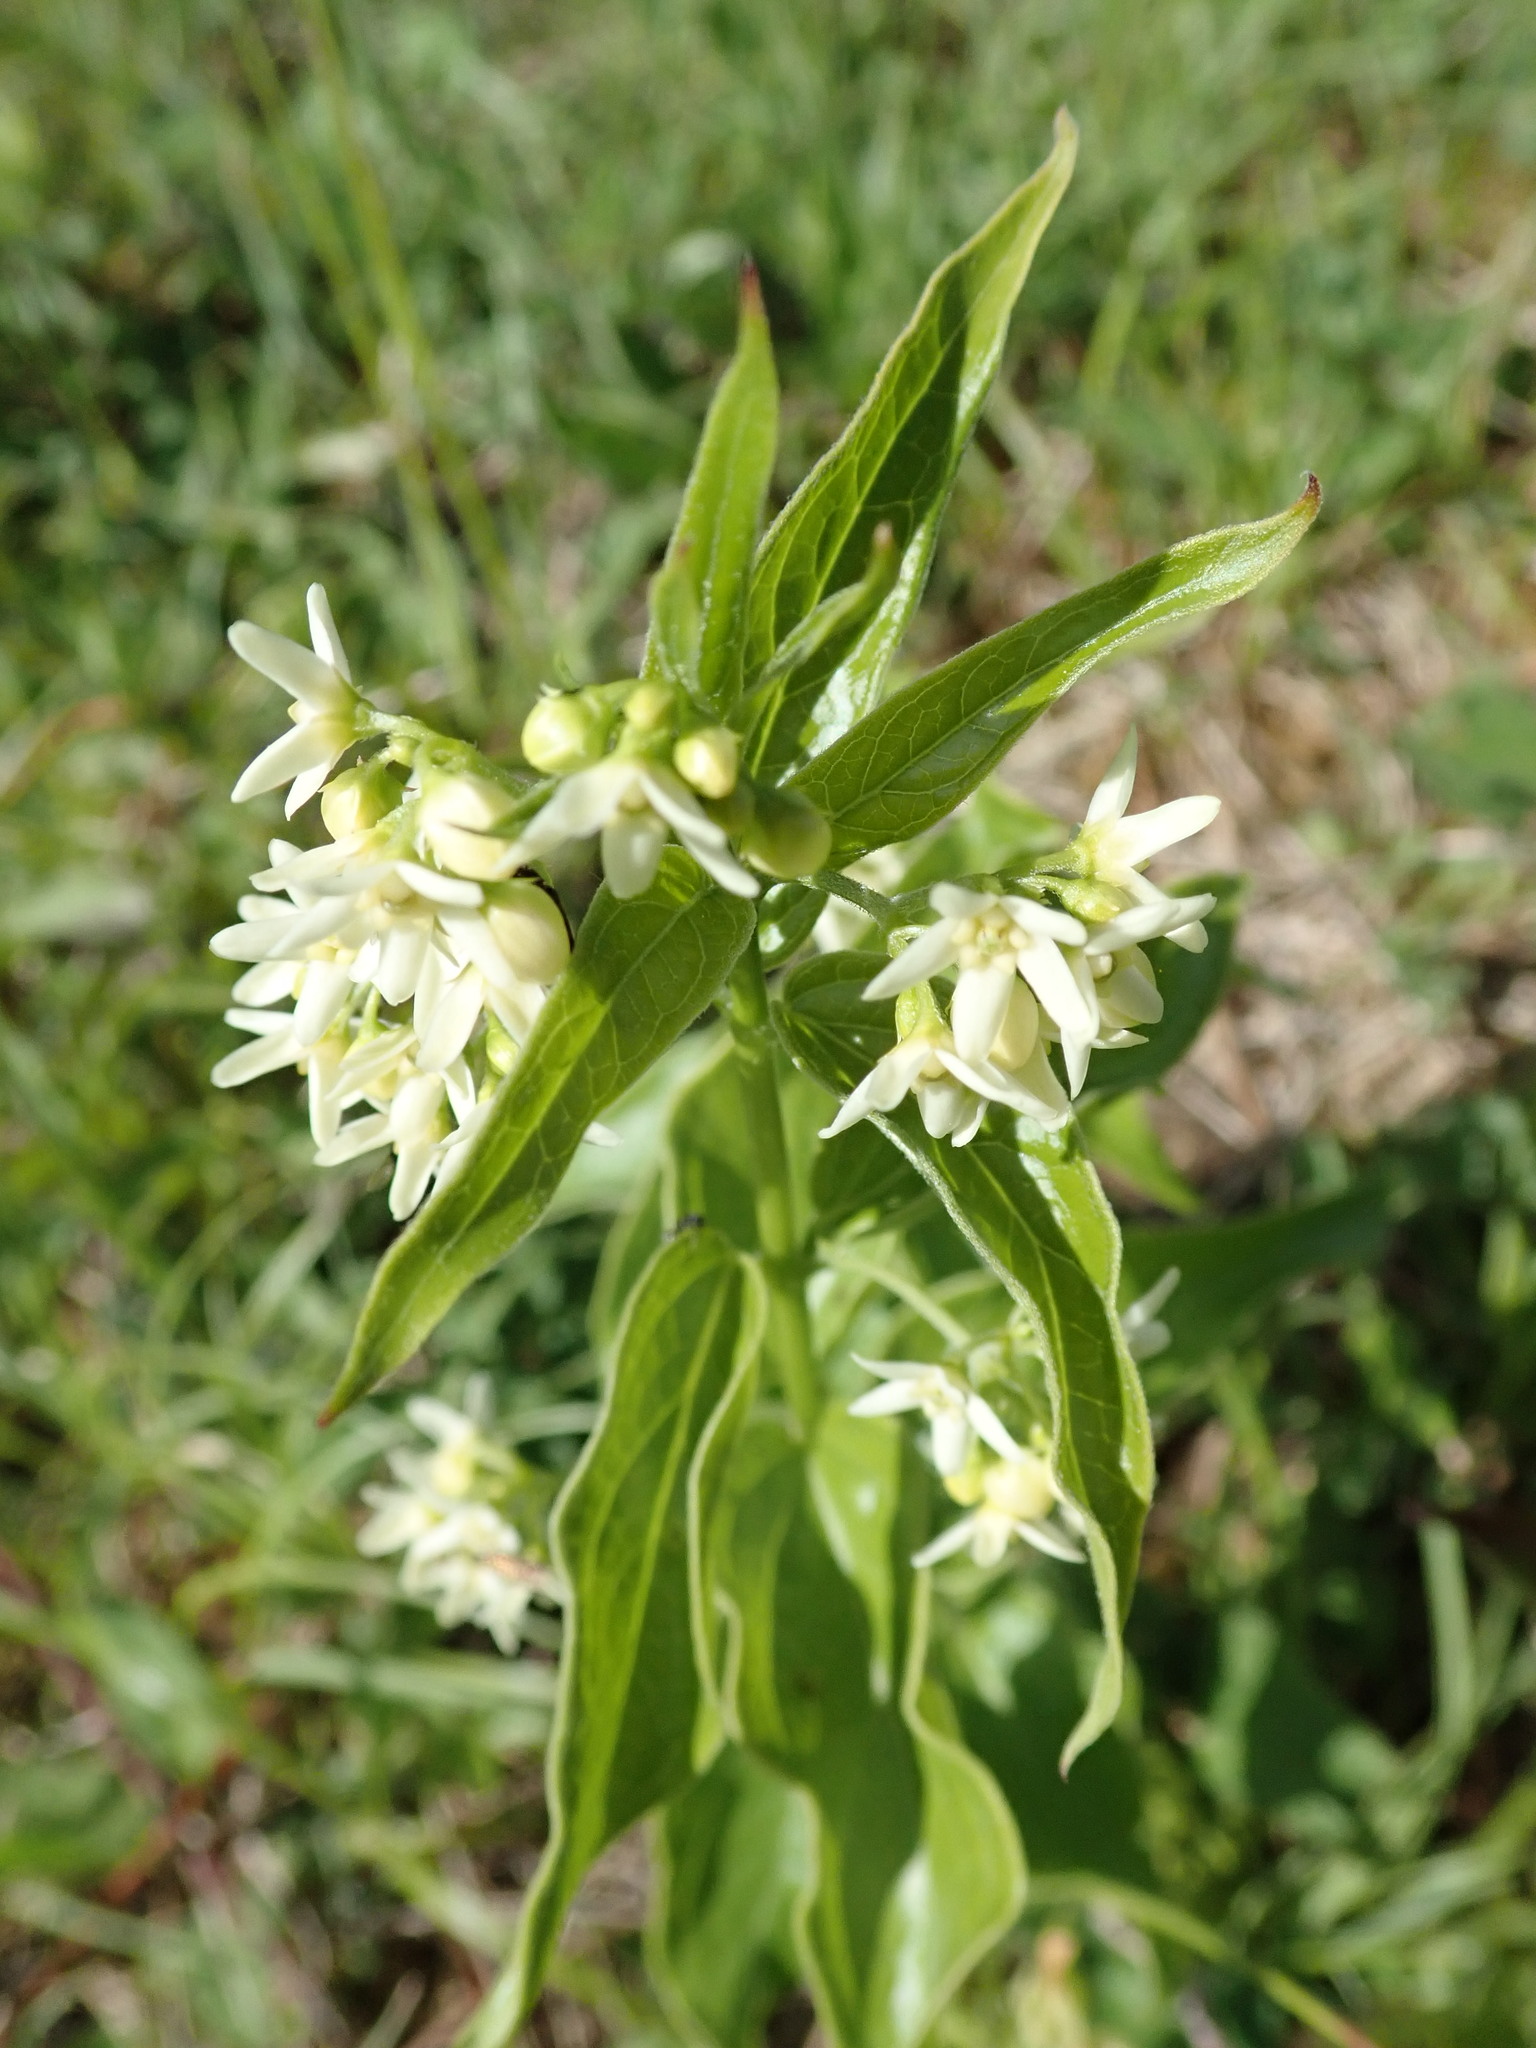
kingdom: Plantae
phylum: Tracheophyta
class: Magnoliopsida
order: Gentianales
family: Apocynaceae
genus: Vincetoxicum
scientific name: Vincetoxicum hirundinaria
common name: White swallowwort
